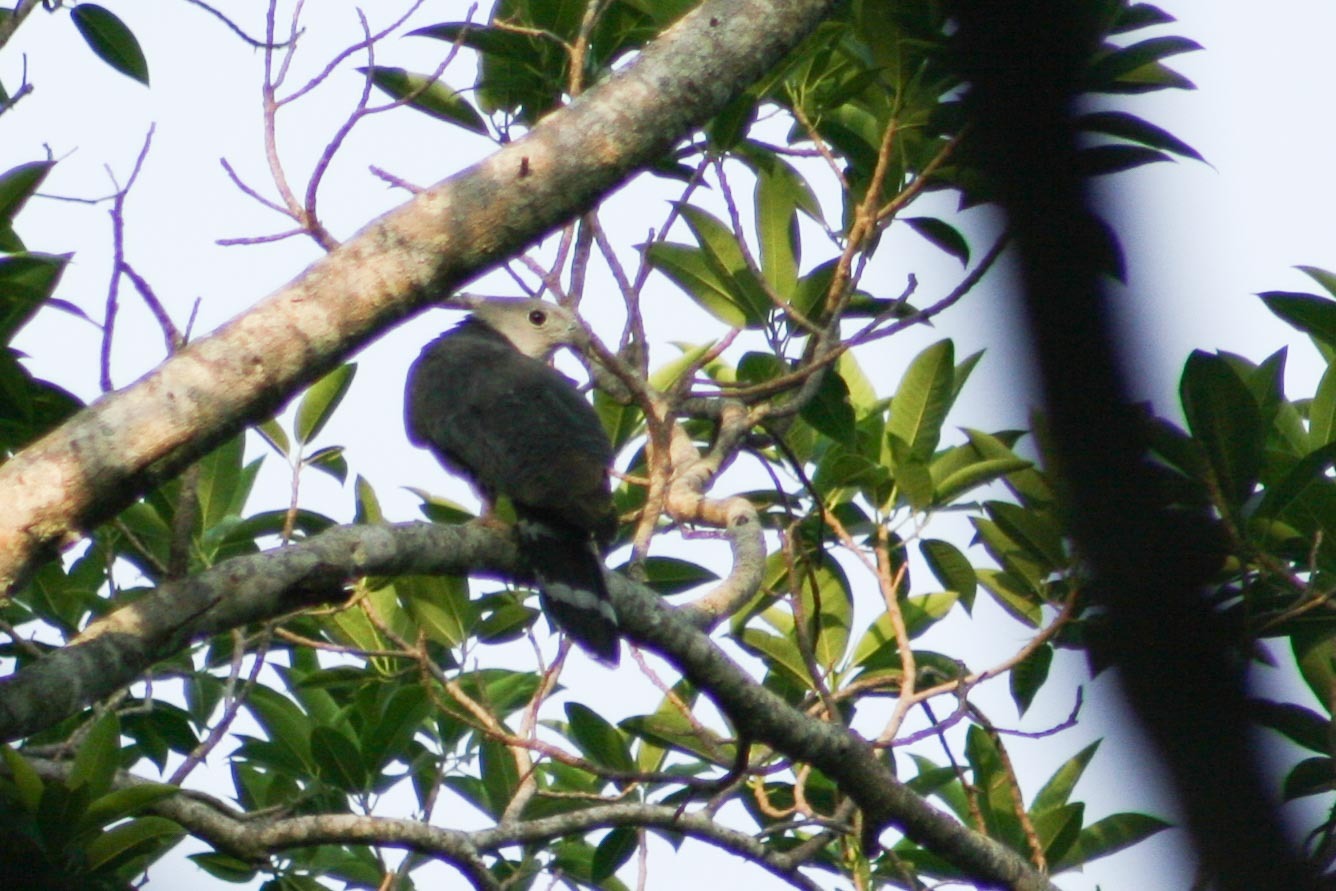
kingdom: Animalia
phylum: Chordata
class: Aves
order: Accipitriformes
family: Accipitridae
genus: Leptodon
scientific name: Leptodon cayanensis
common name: Gray-headed kite
